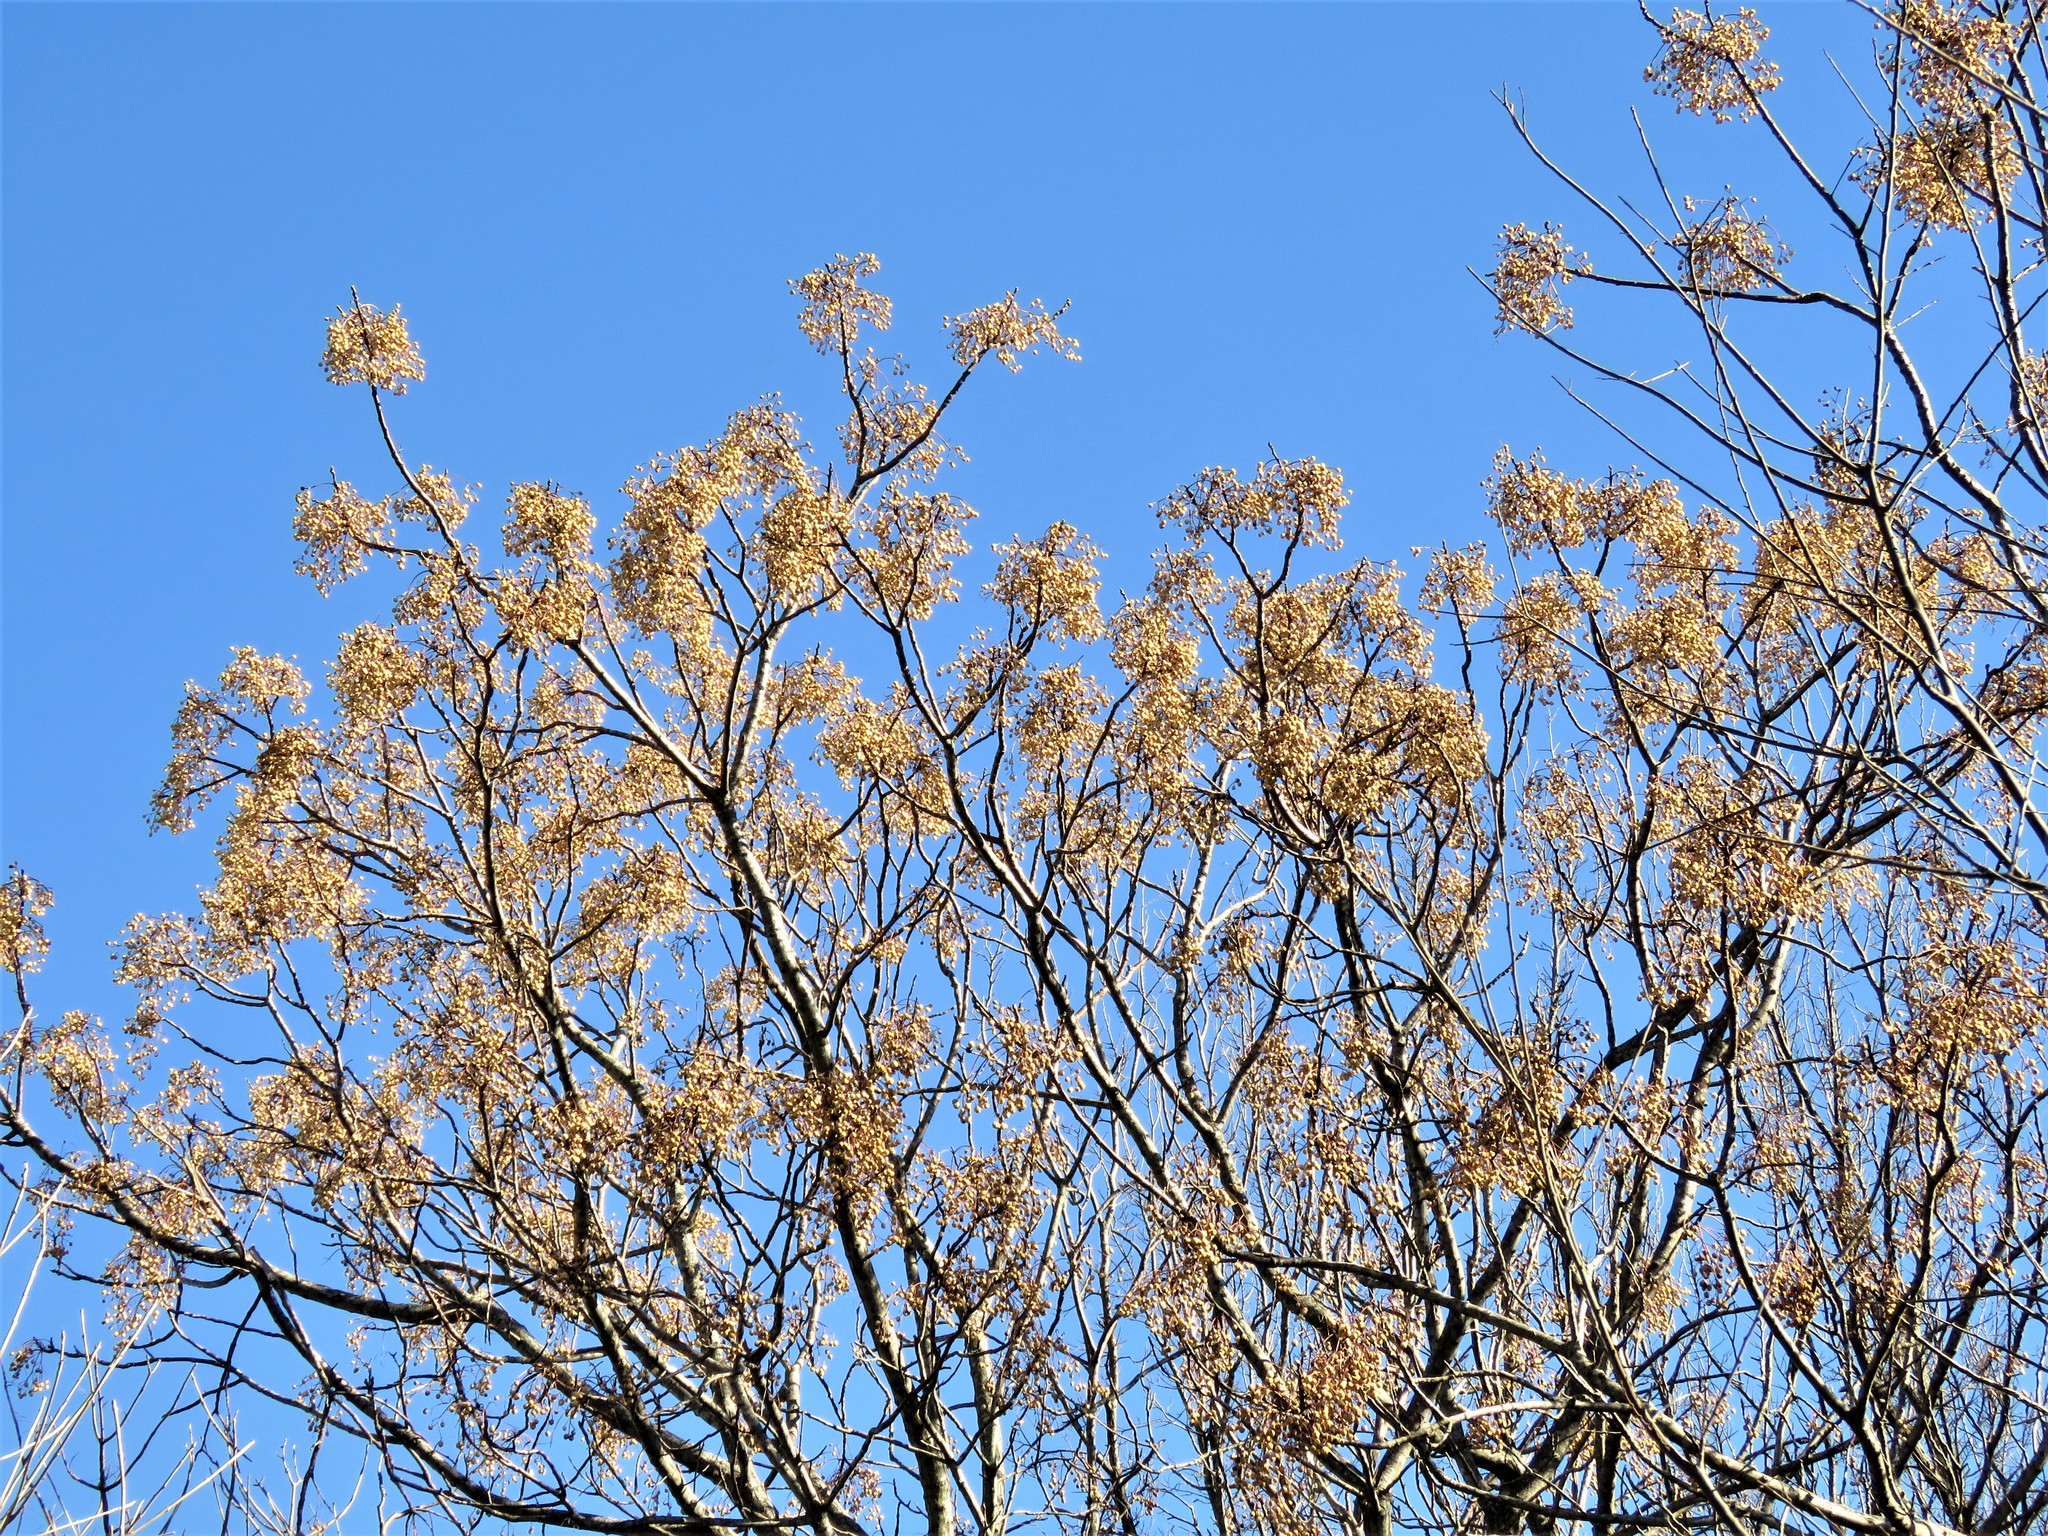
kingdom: Plantae
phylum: Tracheophyta
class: Magnoliopsida
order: Sapindales
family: Meliaceae
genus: Melia
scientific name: Melia azedarach
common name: Chinaberrytree
